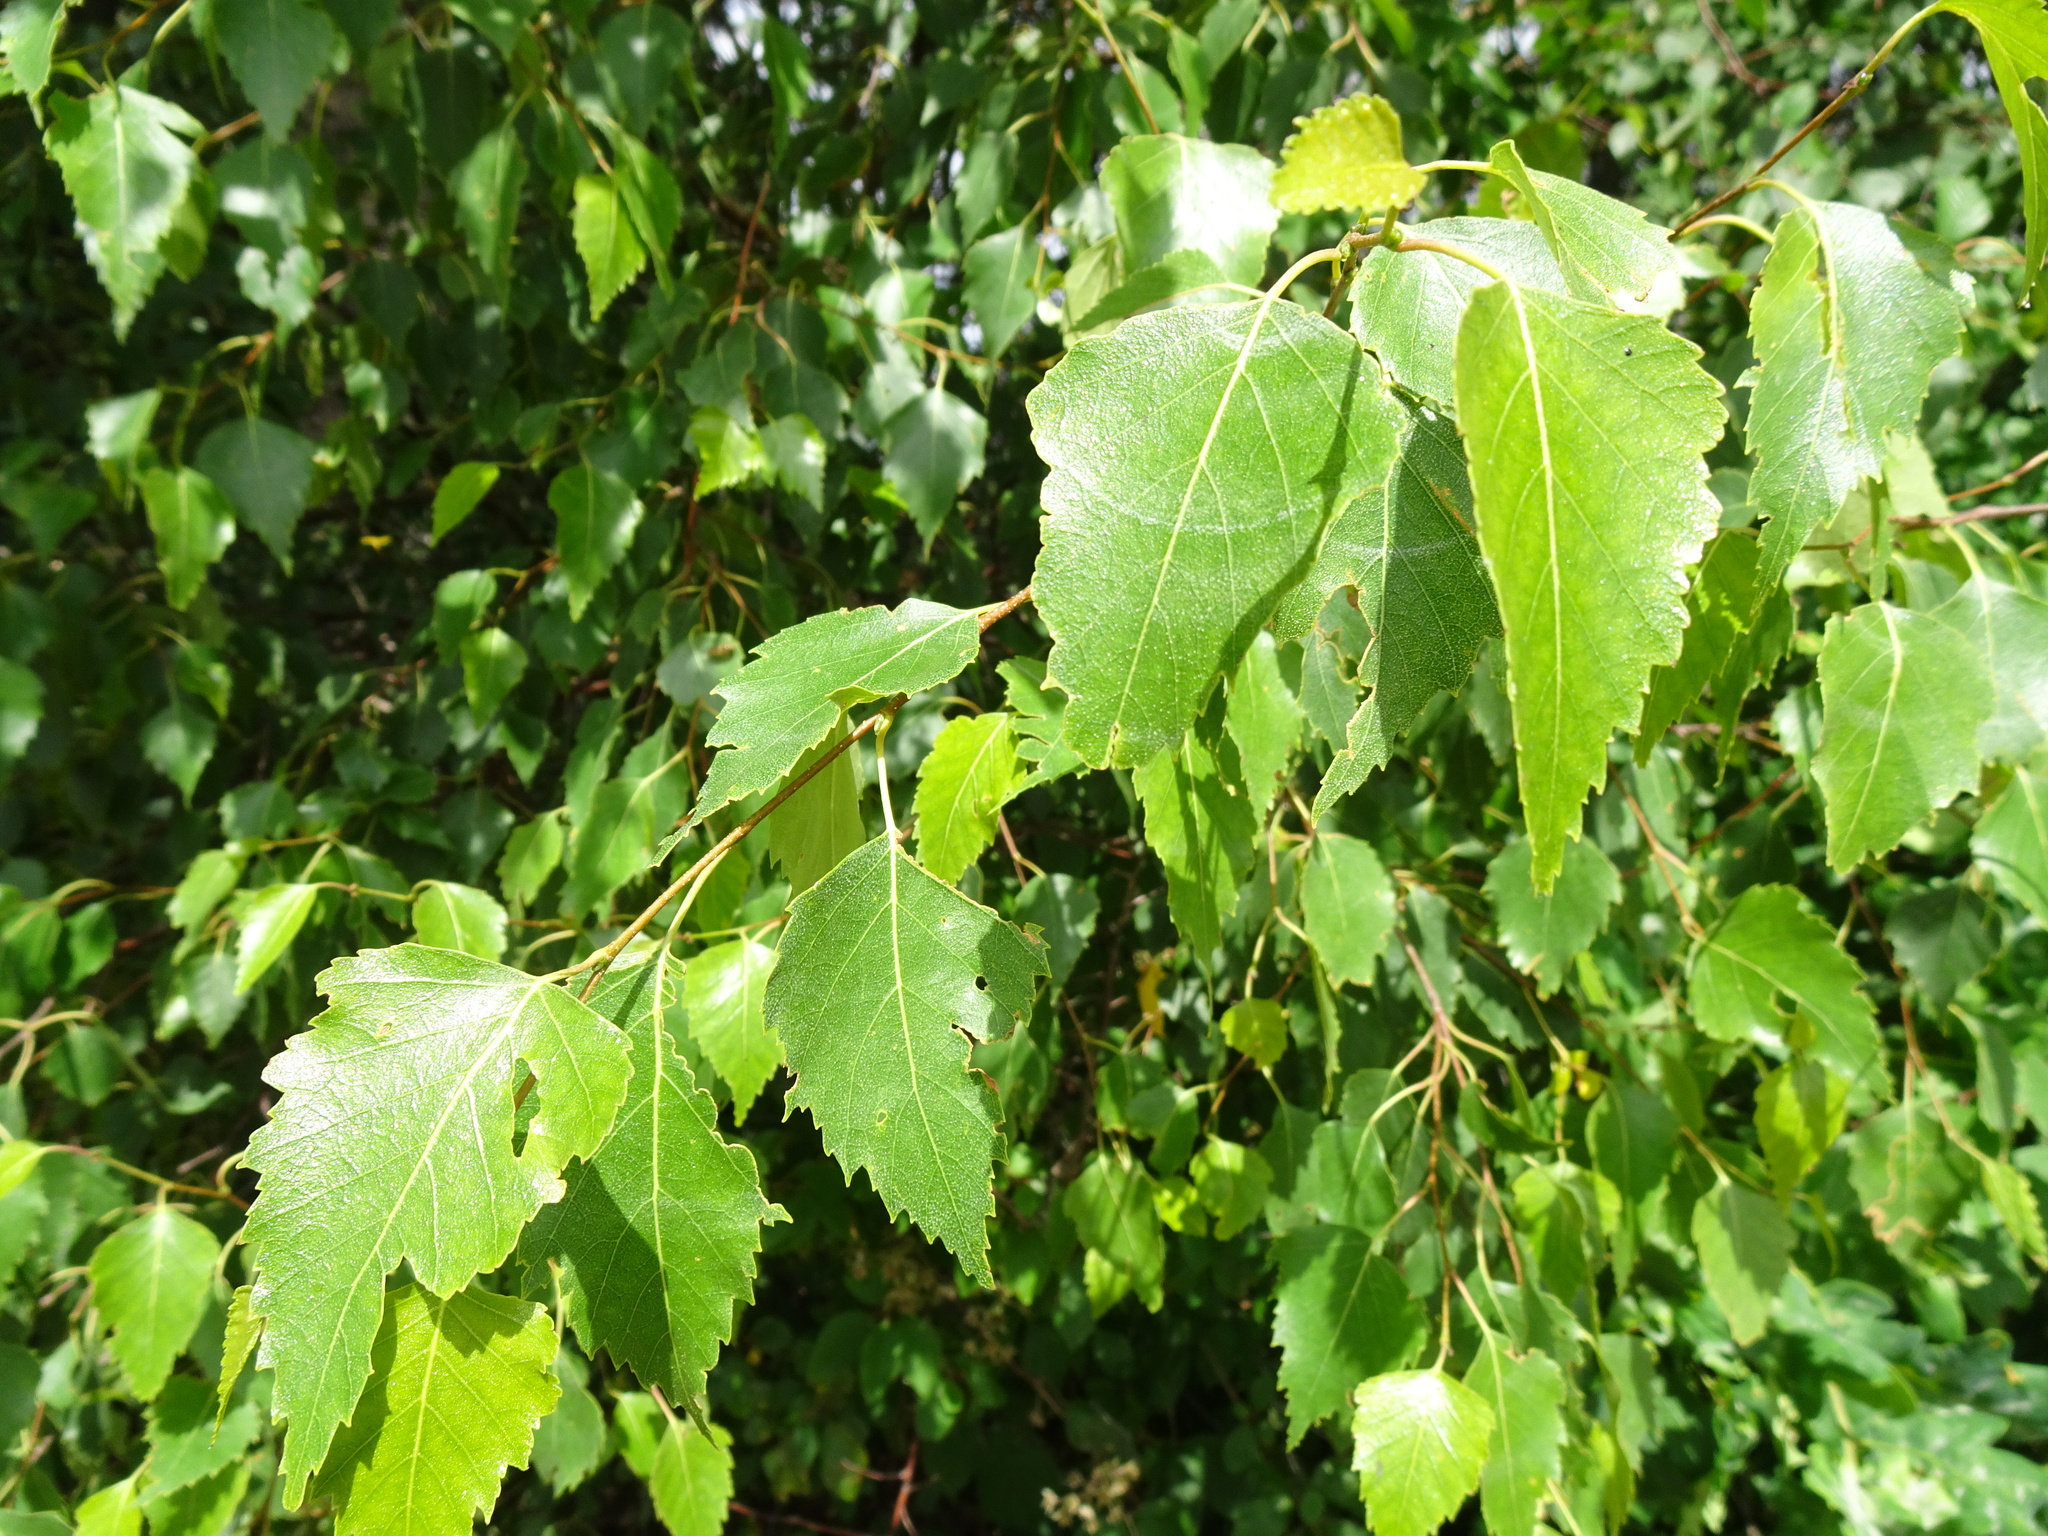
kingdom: Plantae
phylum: Tracheophyta
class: Magnoliopsida
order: Fagales
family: Betulaceae
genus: Betula
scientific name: Betula pendula
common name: Silver birch
